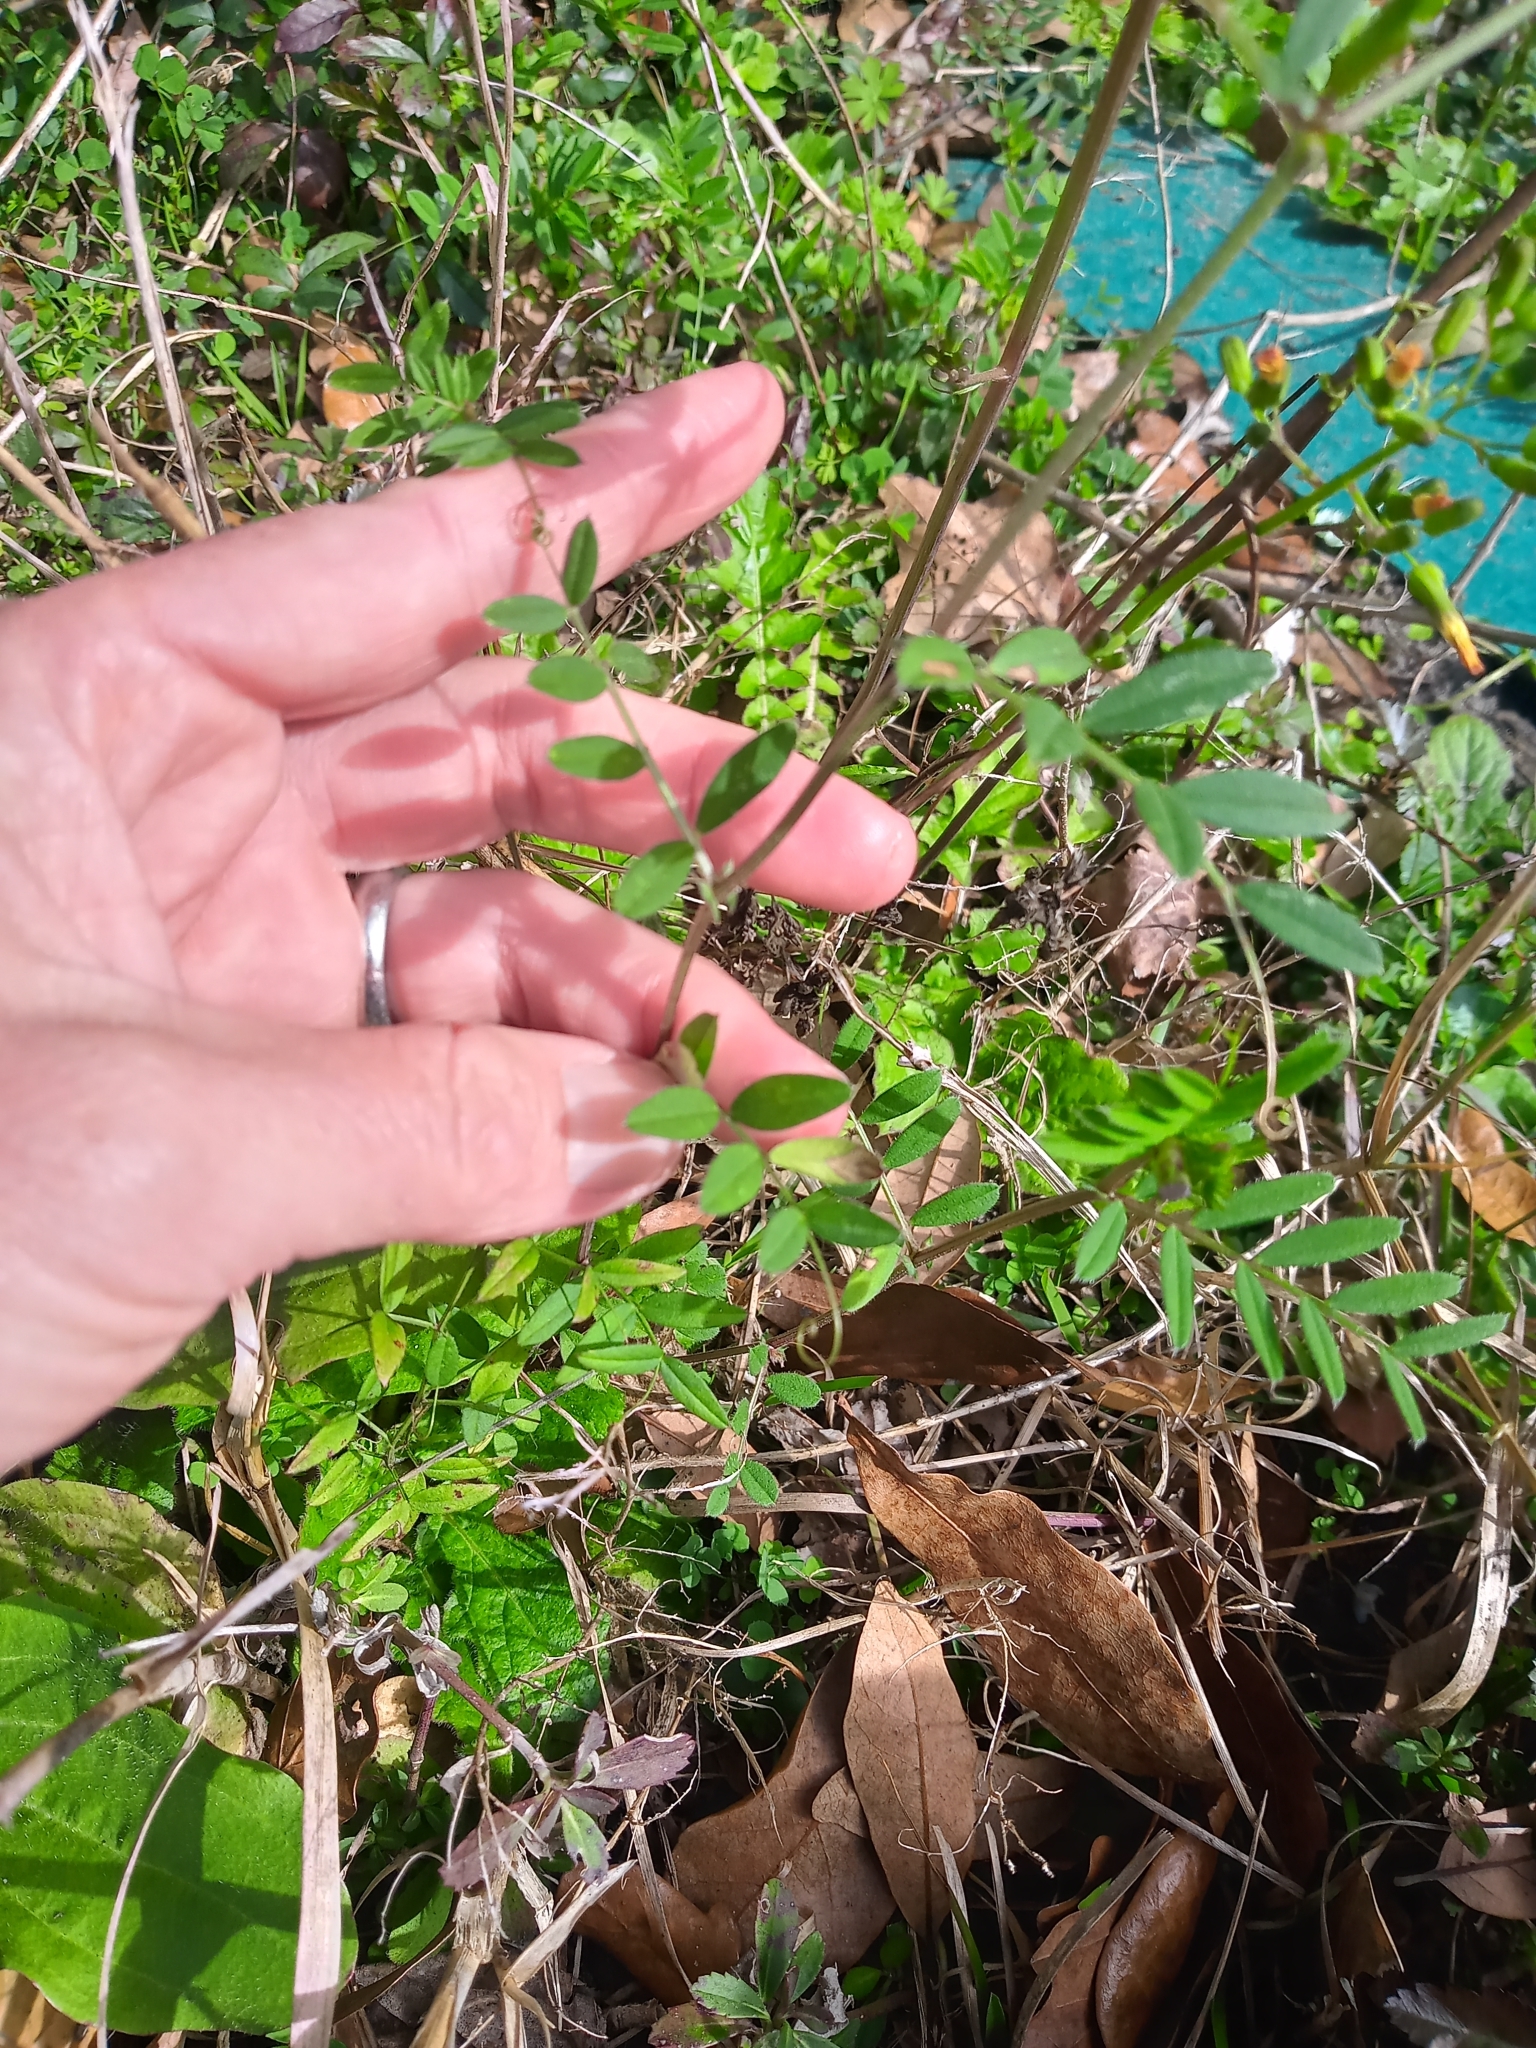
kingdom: Plantae
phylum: Tracheophyta
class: Magnoliopsida
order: Fabales
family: Fabaceae
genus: Vicia
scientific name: Vicia sativa
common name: Garden vetch
